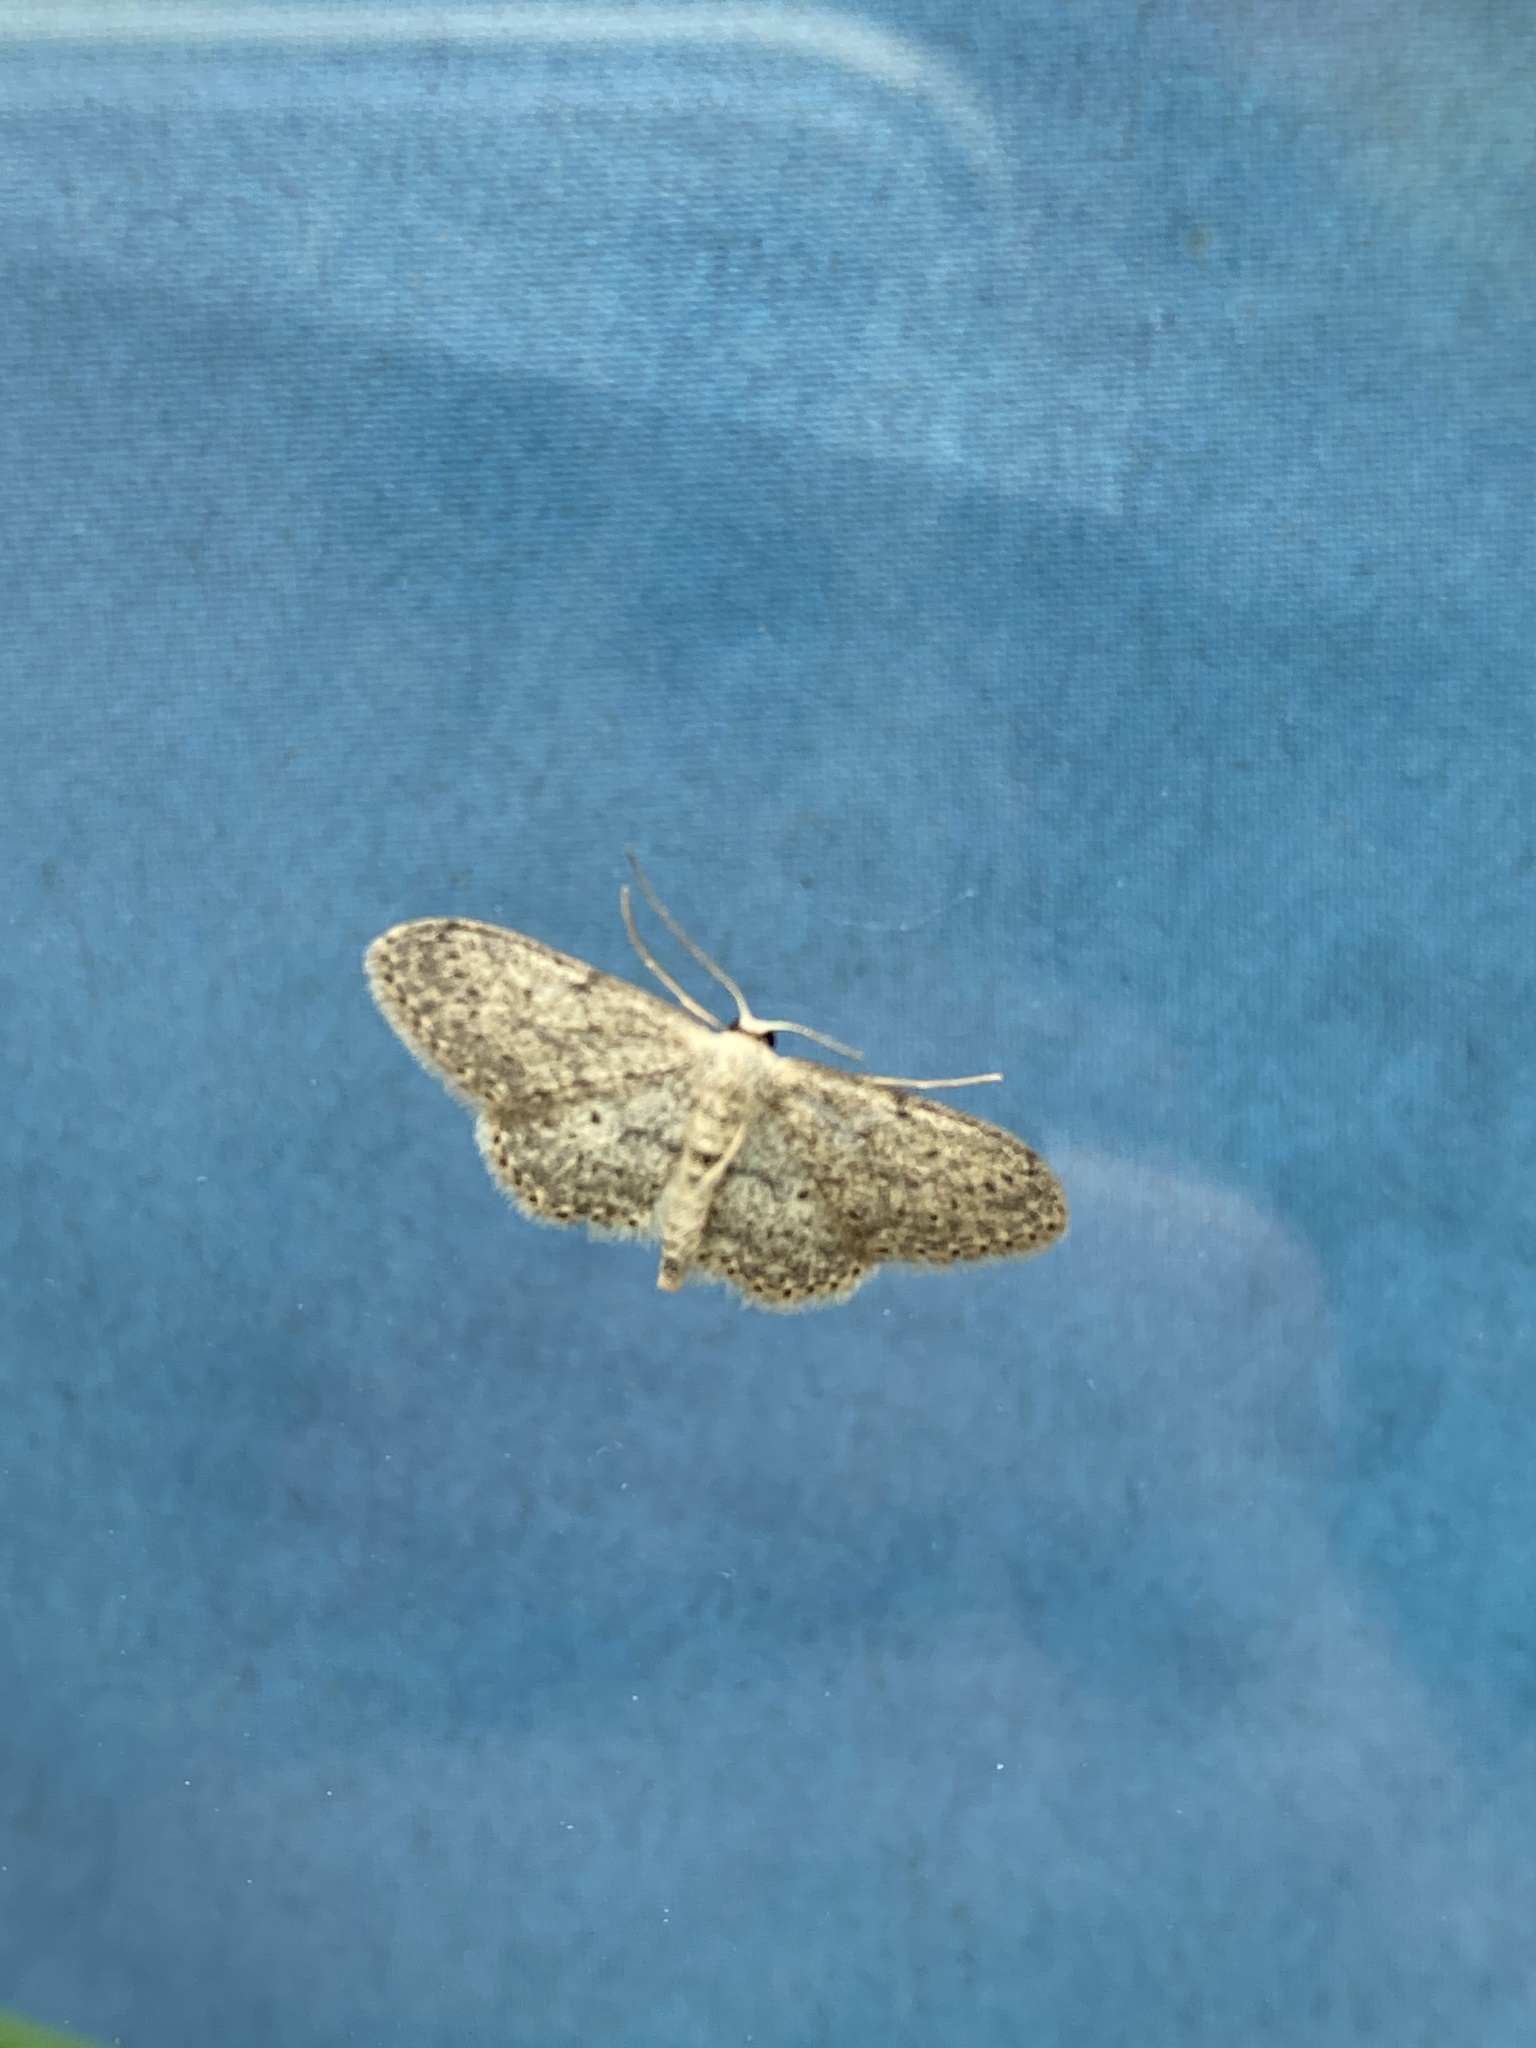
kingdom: Animalia
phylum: Arthropoda
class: Insecta
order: Lepidoptera
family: Geometridae
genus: Idaea
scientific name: Idaea seriata
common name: Small dusty wave
